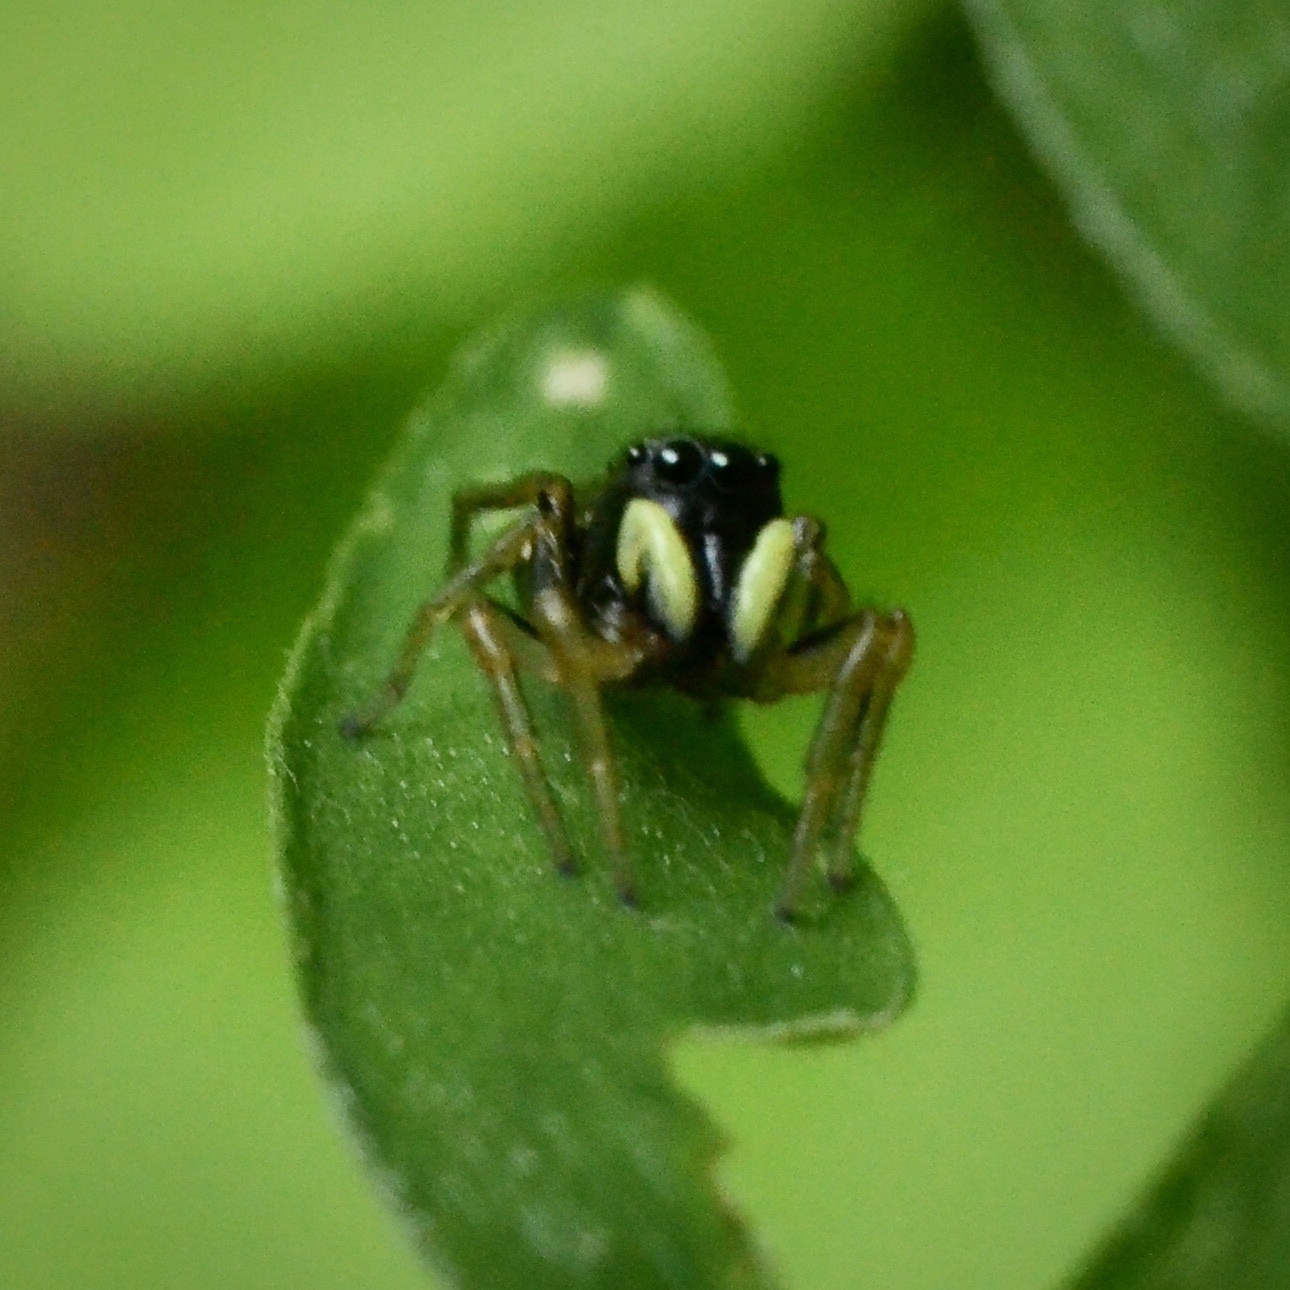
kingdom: Animalia
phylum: Arthropoda
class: Arachnida
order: Araneae
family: Salticidae
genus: Heliophanus
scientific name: Heliophanus cupreus
